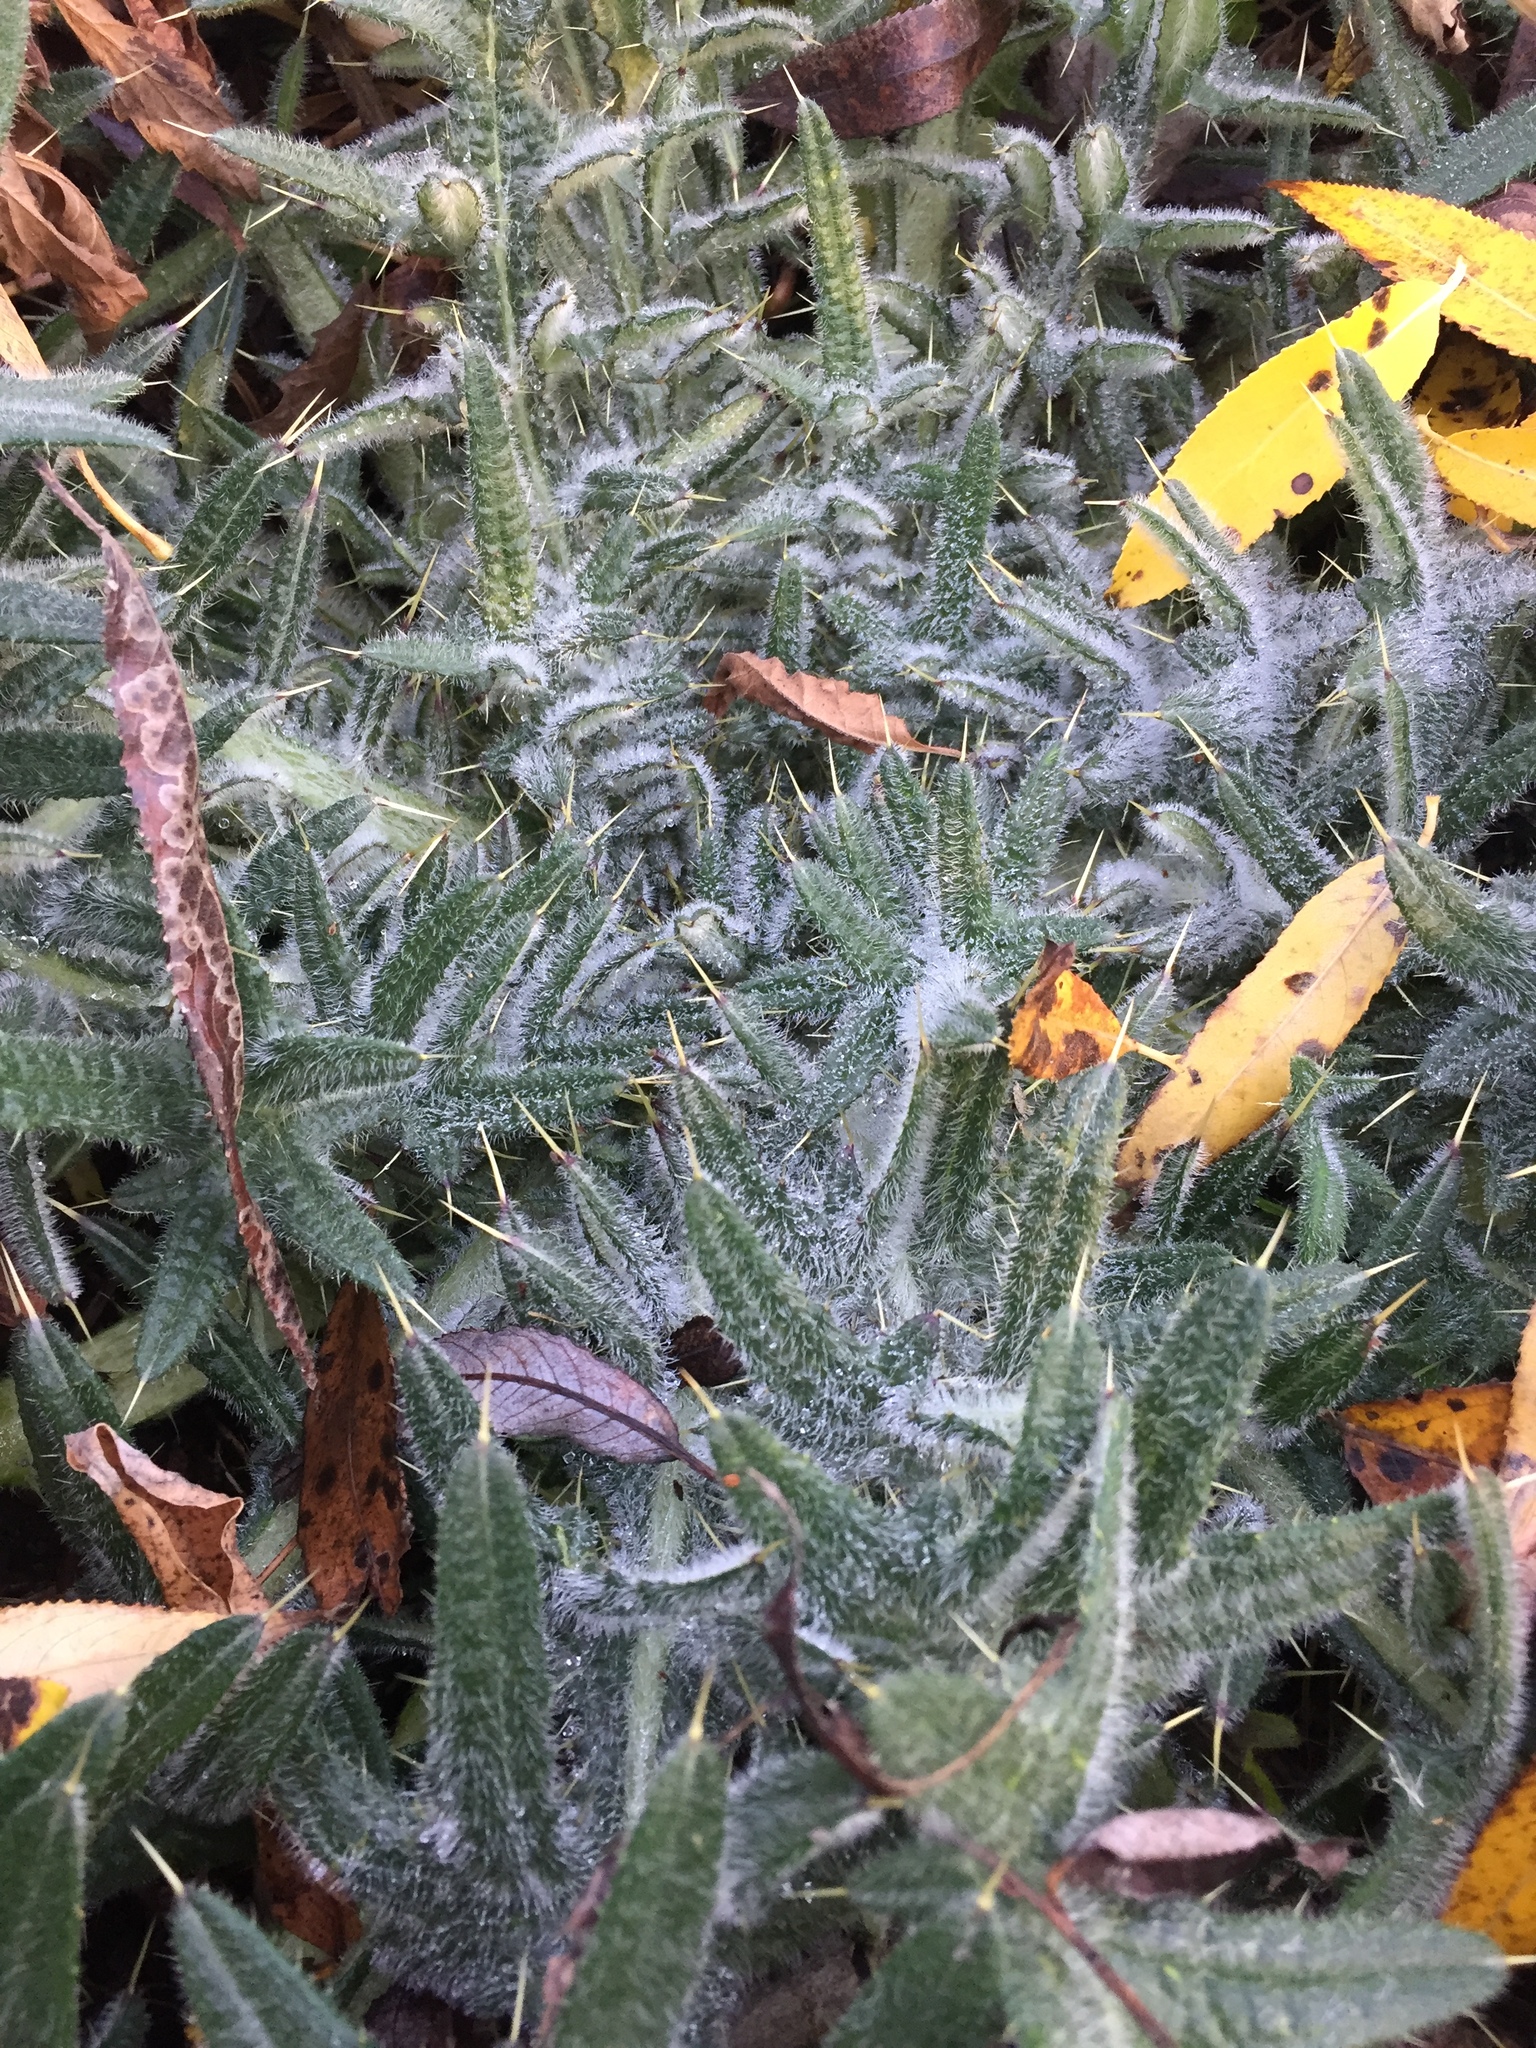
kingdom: Plantae
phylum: Tracheophyta
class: Magnoliopsida
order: Asterales
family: Asteraceae
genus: Cirsium
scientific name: Cirsium vulgare
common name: Bull thistle
